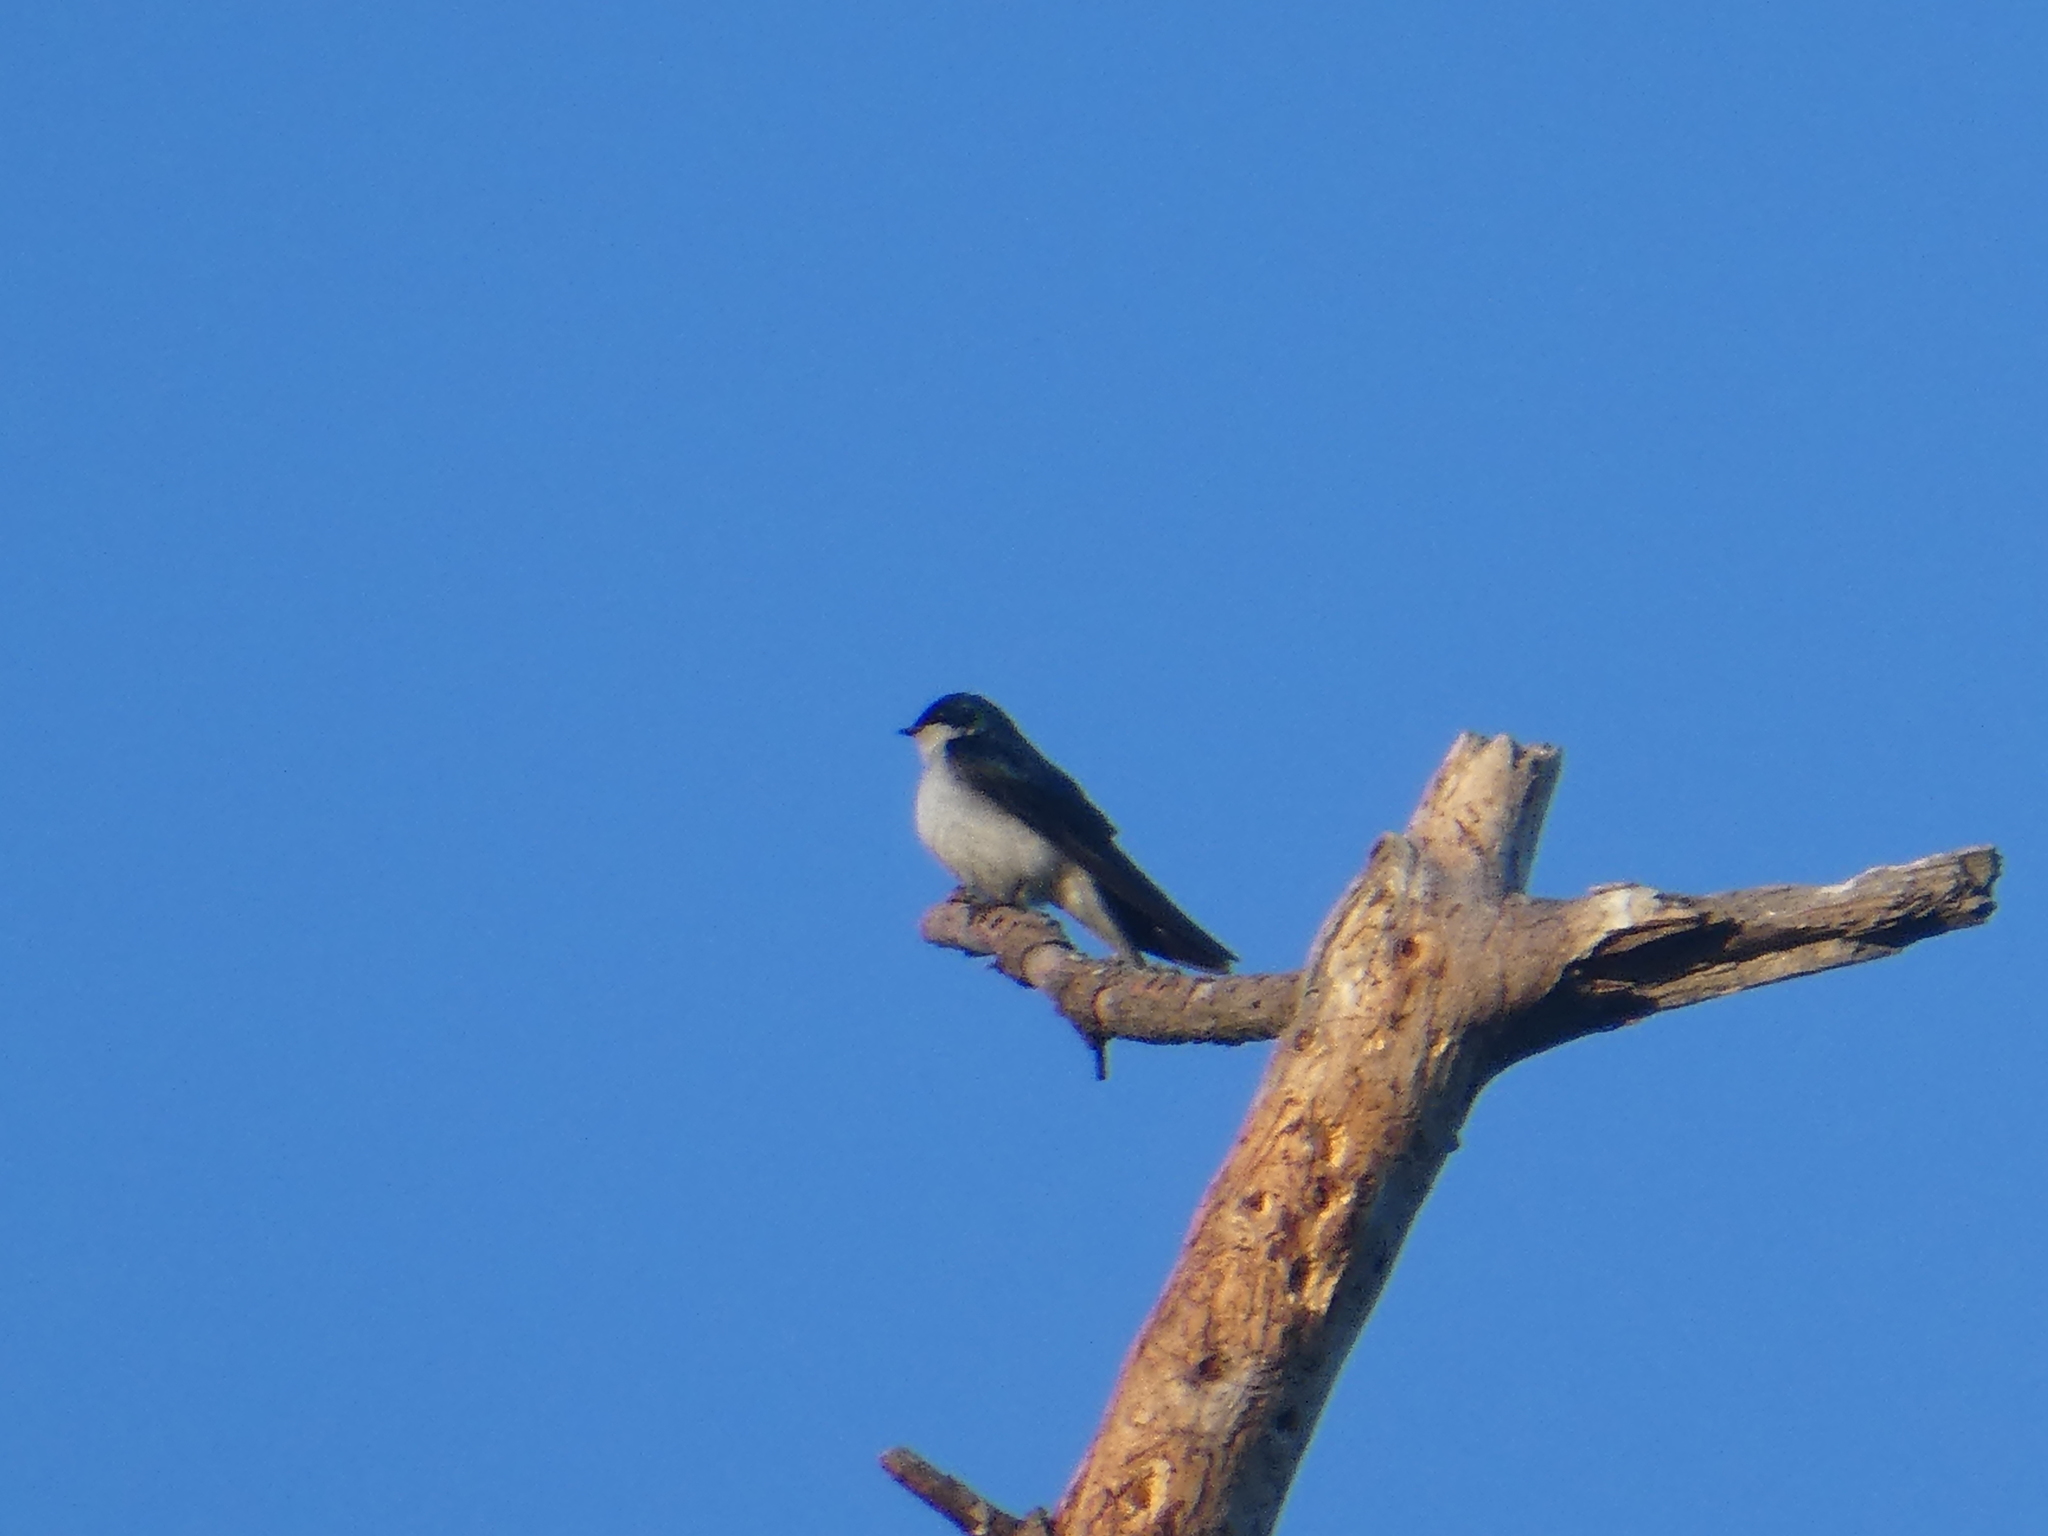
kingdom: Animalia
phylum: Chordata
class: Aves
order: Passeriformes
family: Hirundinidae
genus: Tachycineta
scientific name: Tachycineta bicolor
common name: Tree swallow
